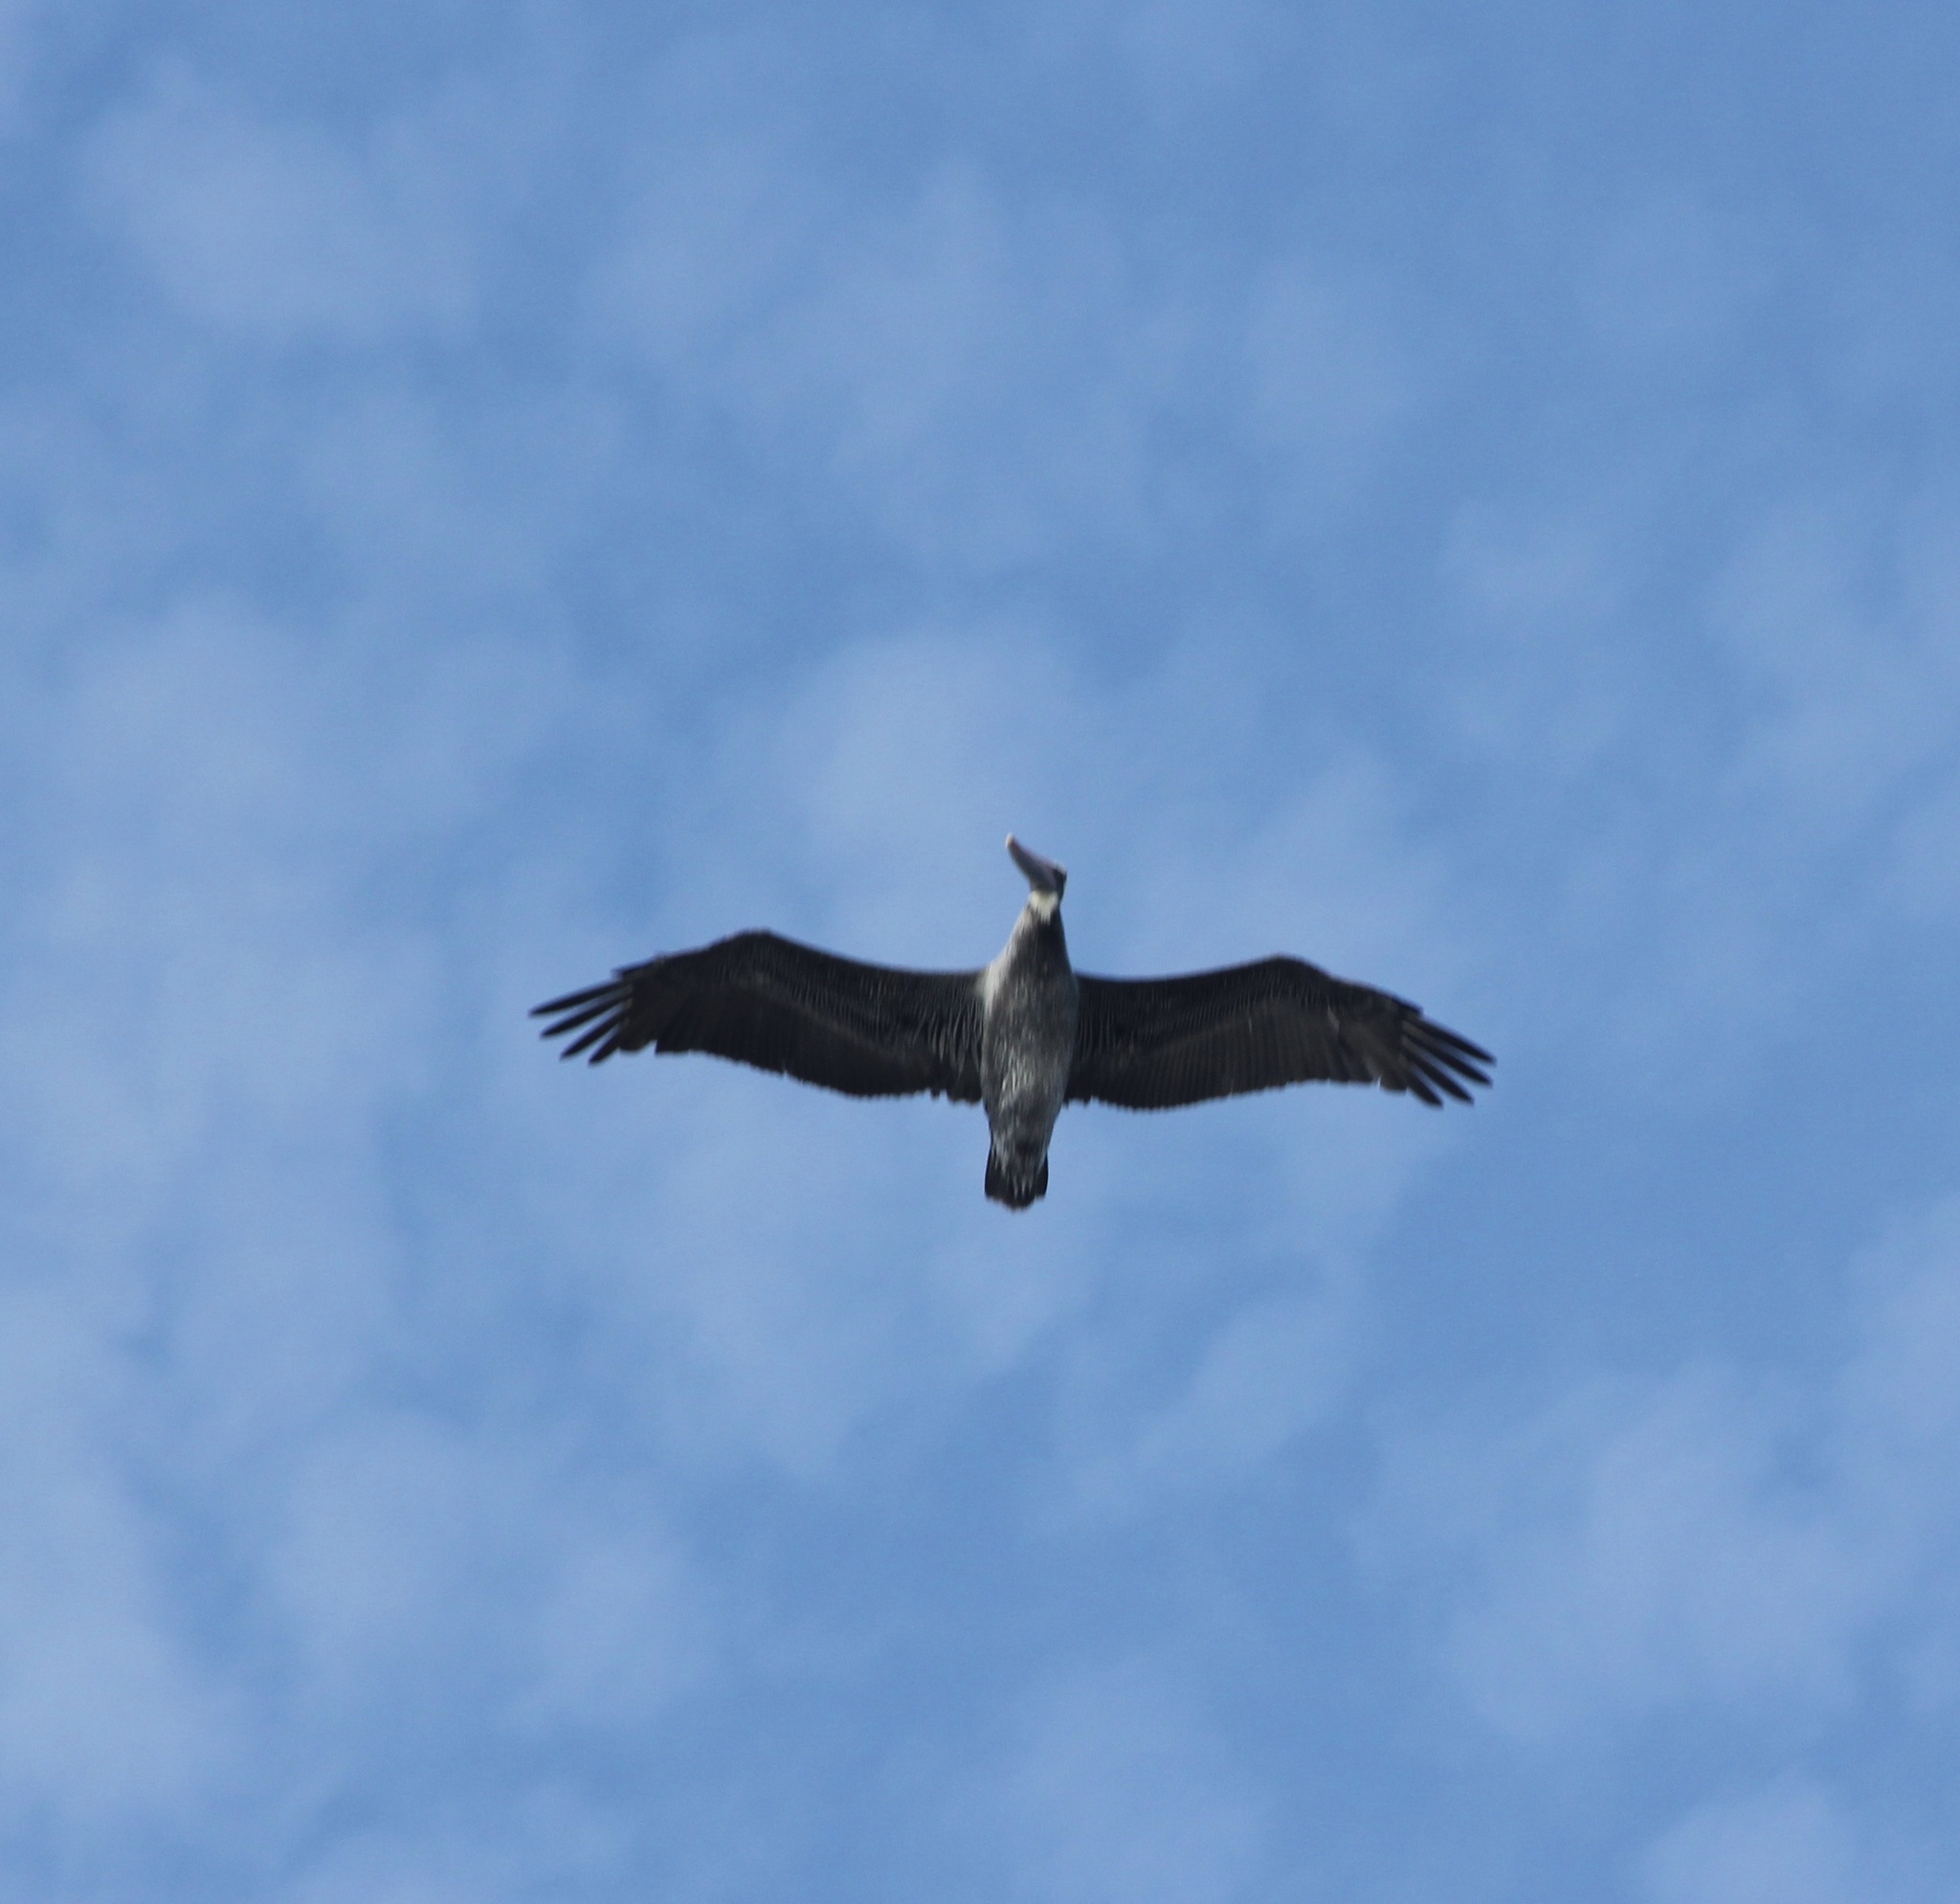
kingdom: Animalia
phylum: Chordata
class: Aves
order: Pelecaniformes
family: Pelecanidae
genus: Pelecanus
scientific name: Pelecanus occidentalis
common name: Brown pelican
